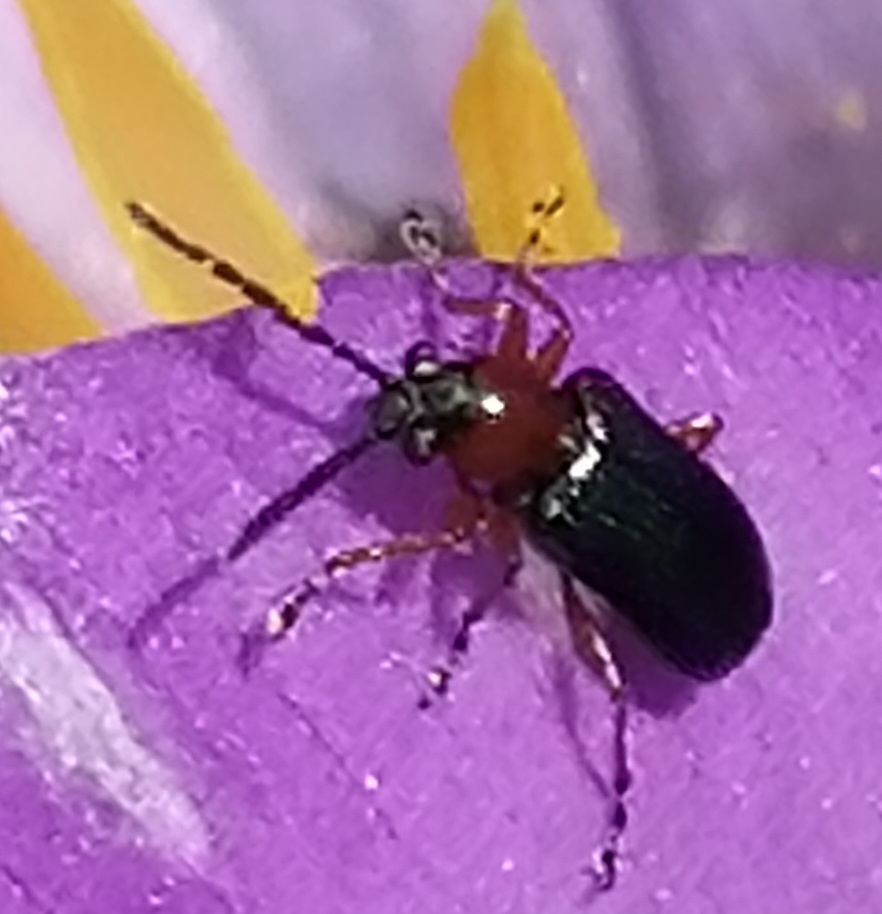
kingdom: Animalia
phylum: Arthropoda
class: Insecta
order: Coleoptera
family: Chrysomelidae
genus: Oulema
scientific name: Oulema
